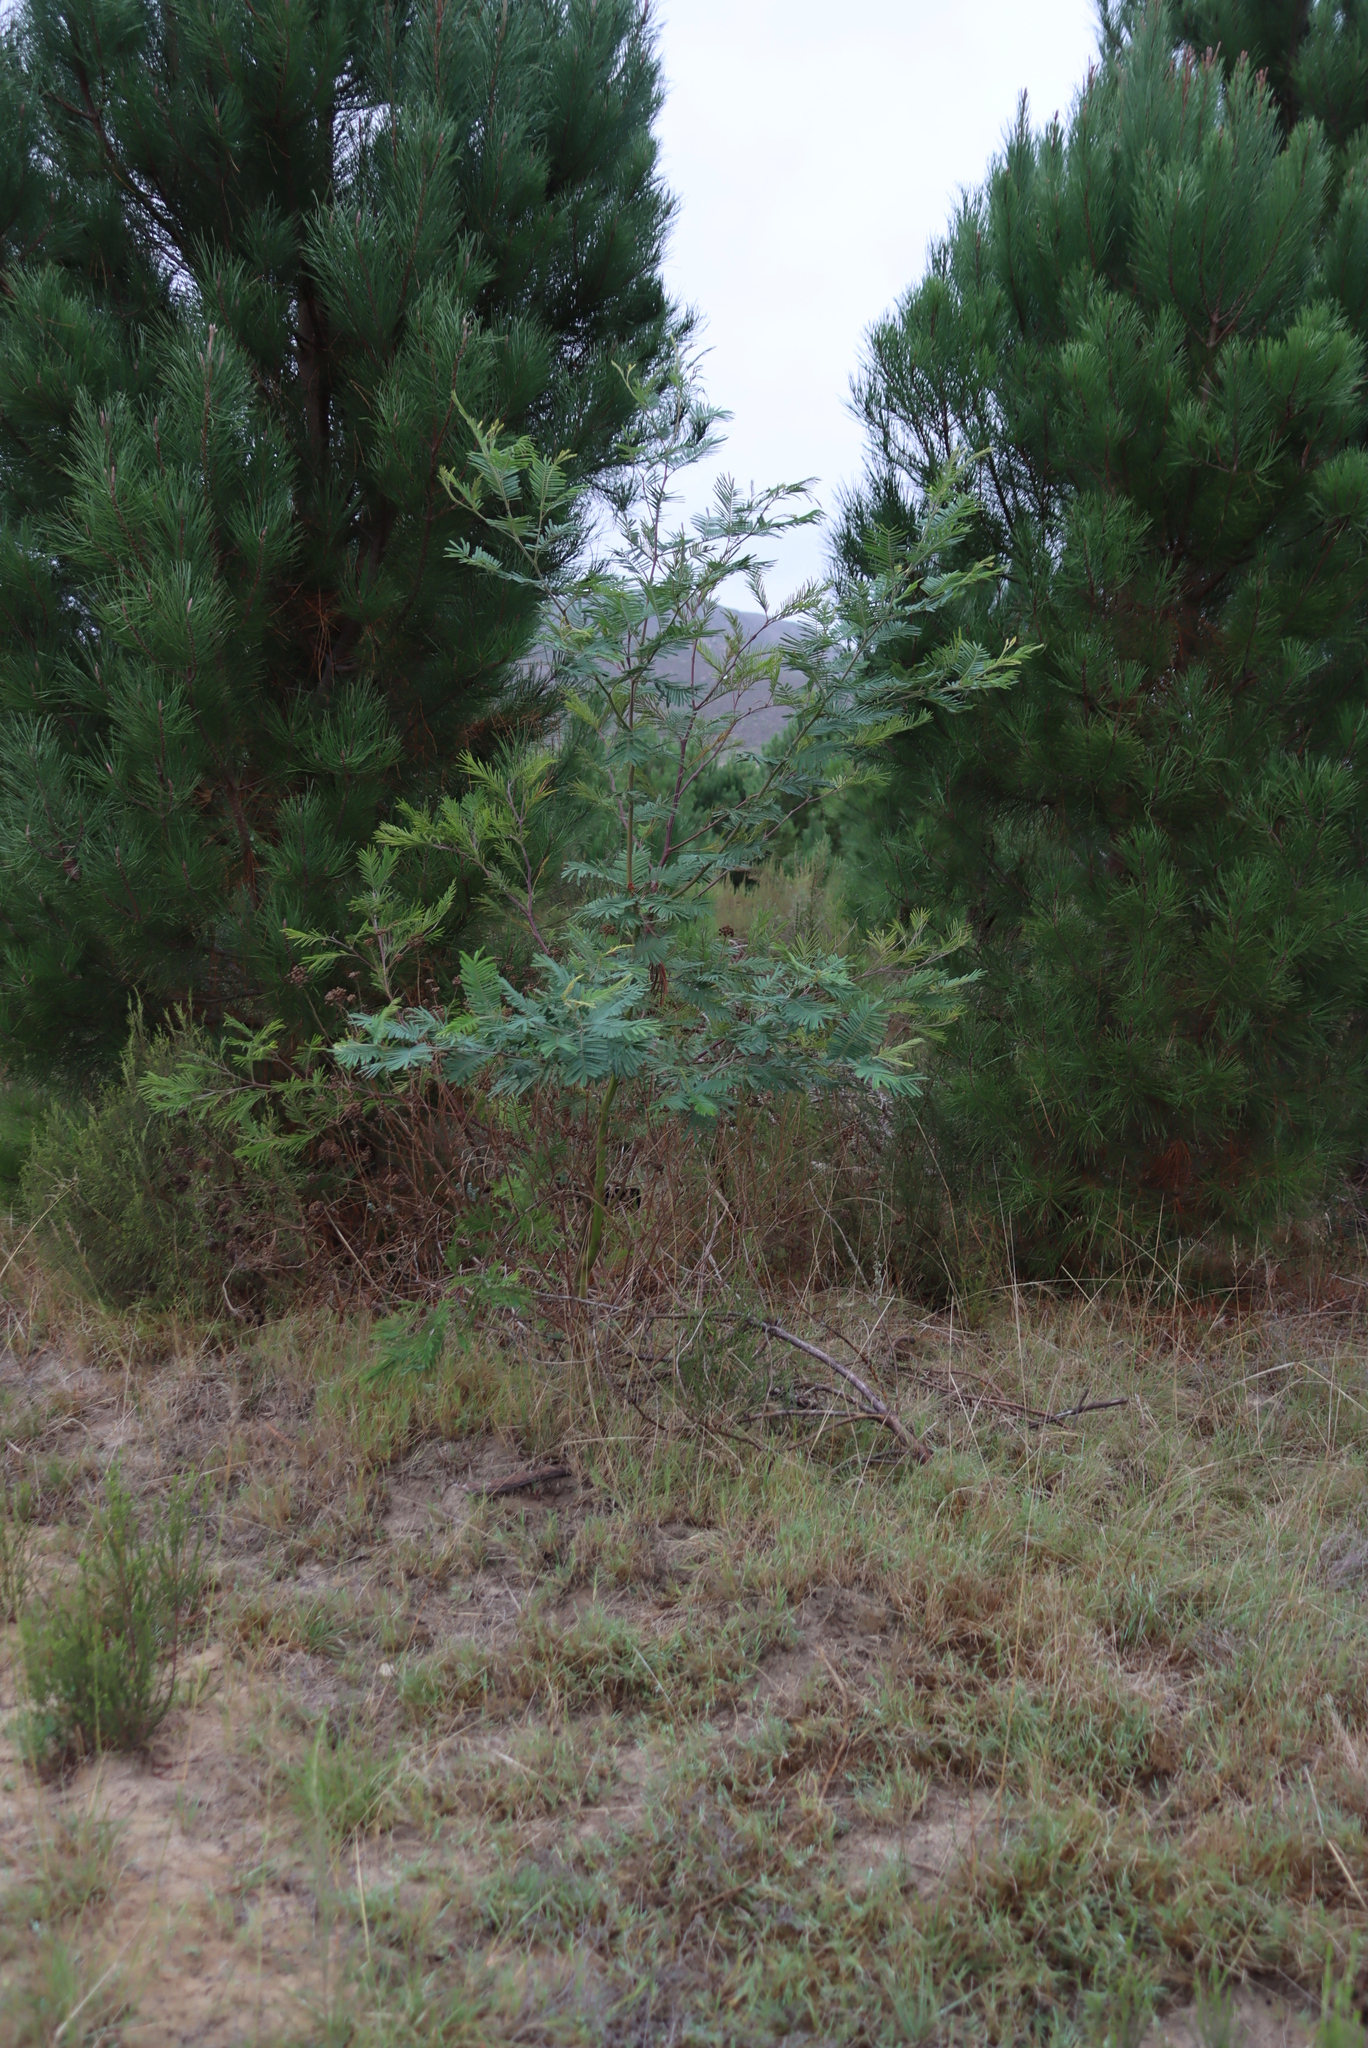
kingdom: Plantae
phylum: Tracheophyta
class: Magnoliopsida
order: Fabales
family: Fabaceae
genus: Acacia
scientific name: Acacia mearnsii
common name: Black wattle
